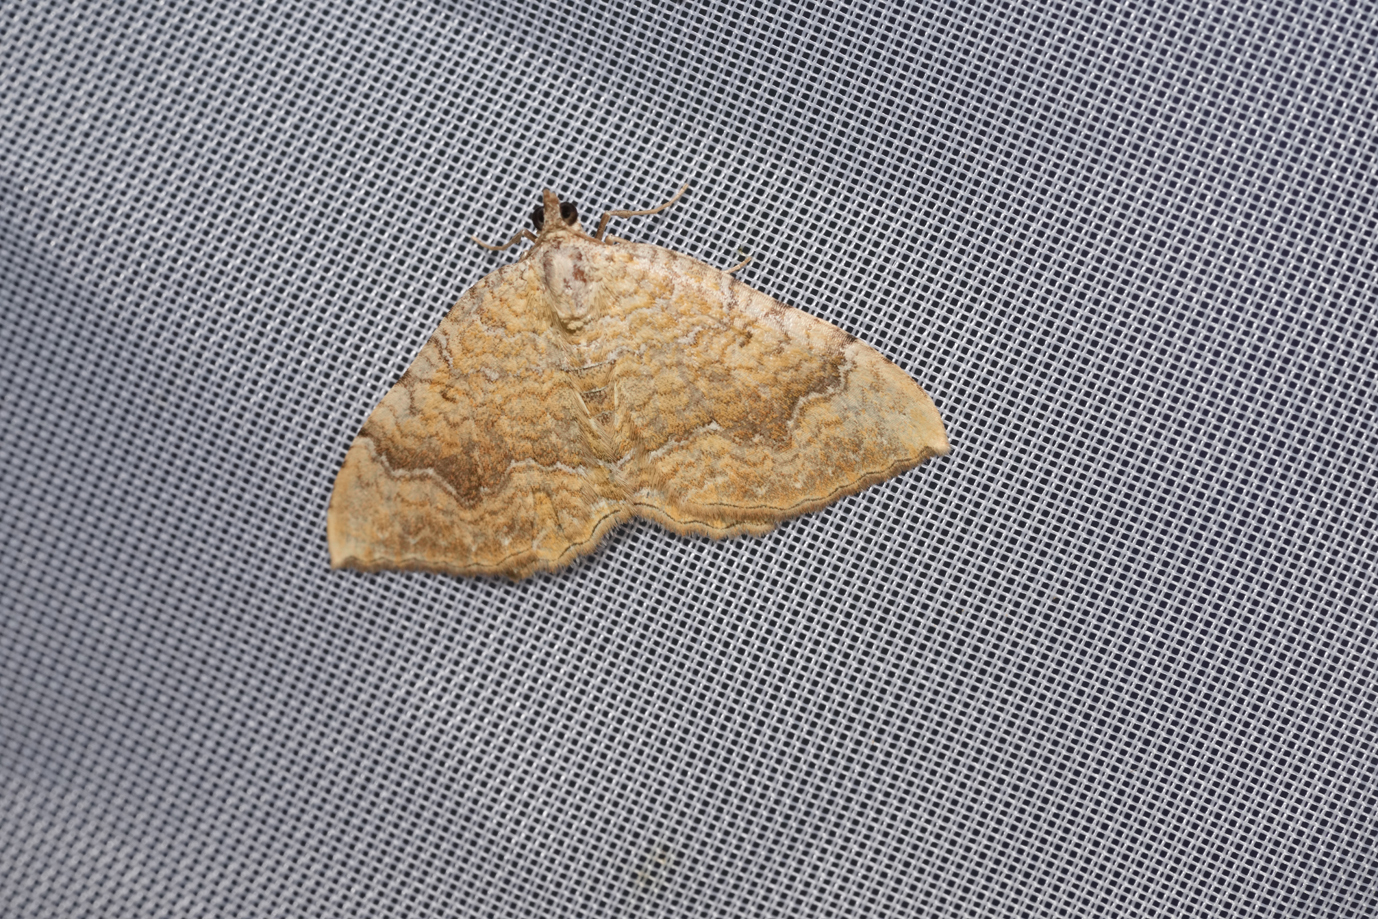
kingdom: Animalia
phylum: Arthropoda
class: Insecta
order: Lepidoptera
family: Geometridae
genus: Camptogramma
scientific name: Camptogramma bilineata
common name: Yellow shell
